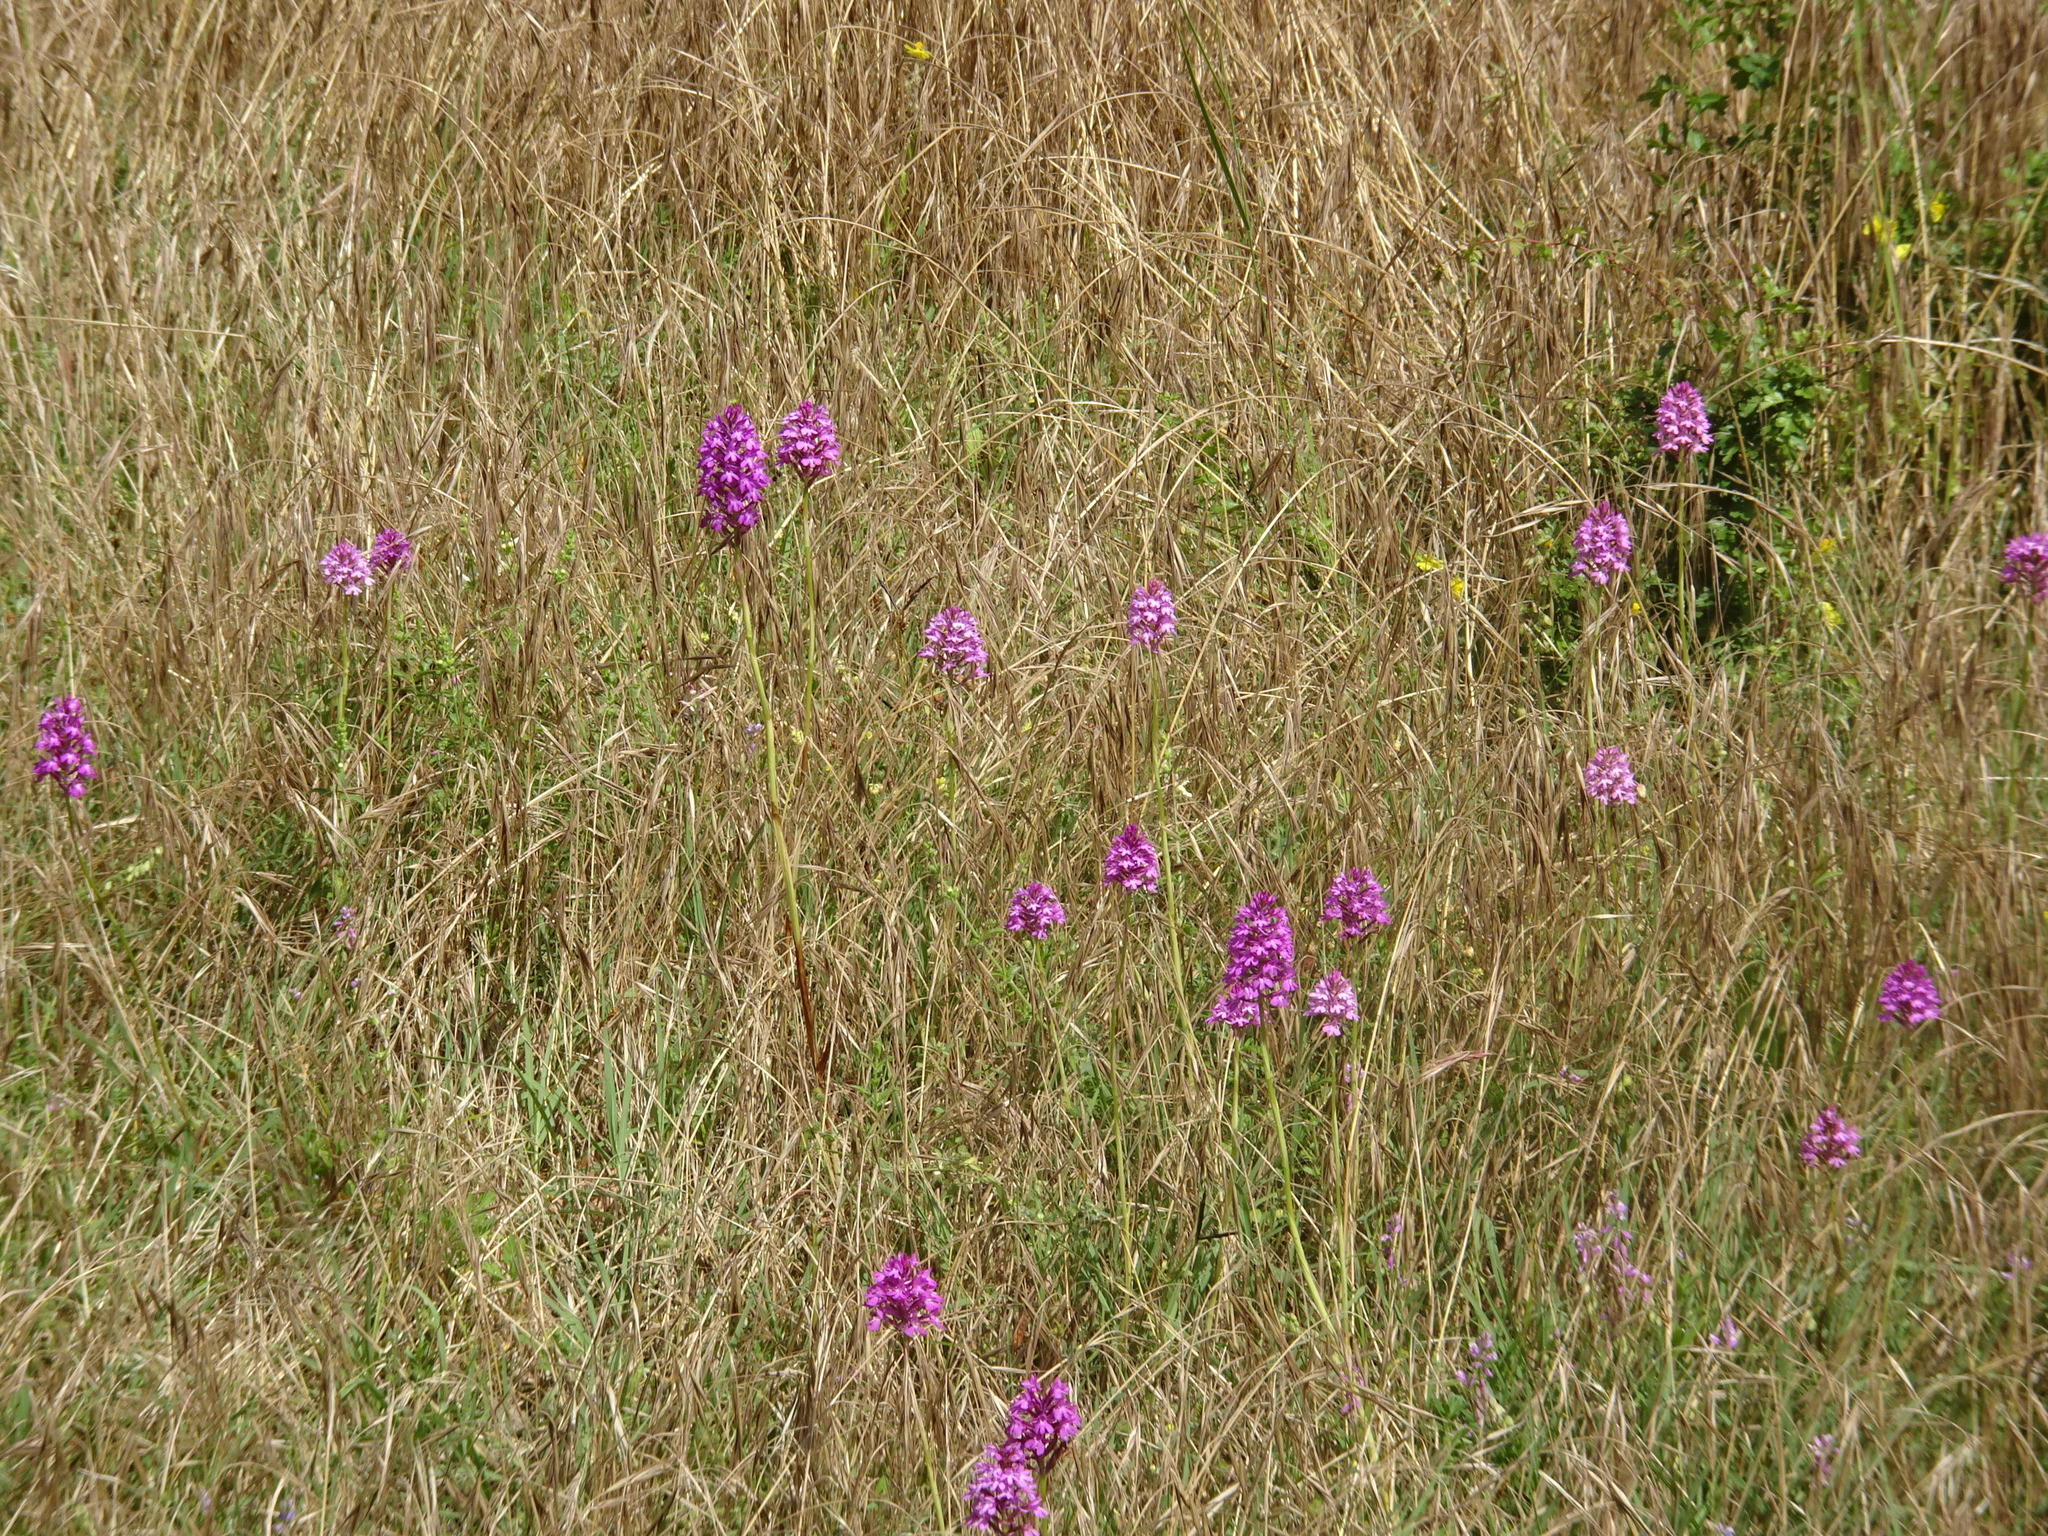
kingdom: Plantae
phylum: Tracheophyta
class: Liliopsida
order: Asparagales
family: Orchidaceae
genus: Anacamptis
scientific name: Anacamptis pyramidalis
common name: Pyramidal orchid
